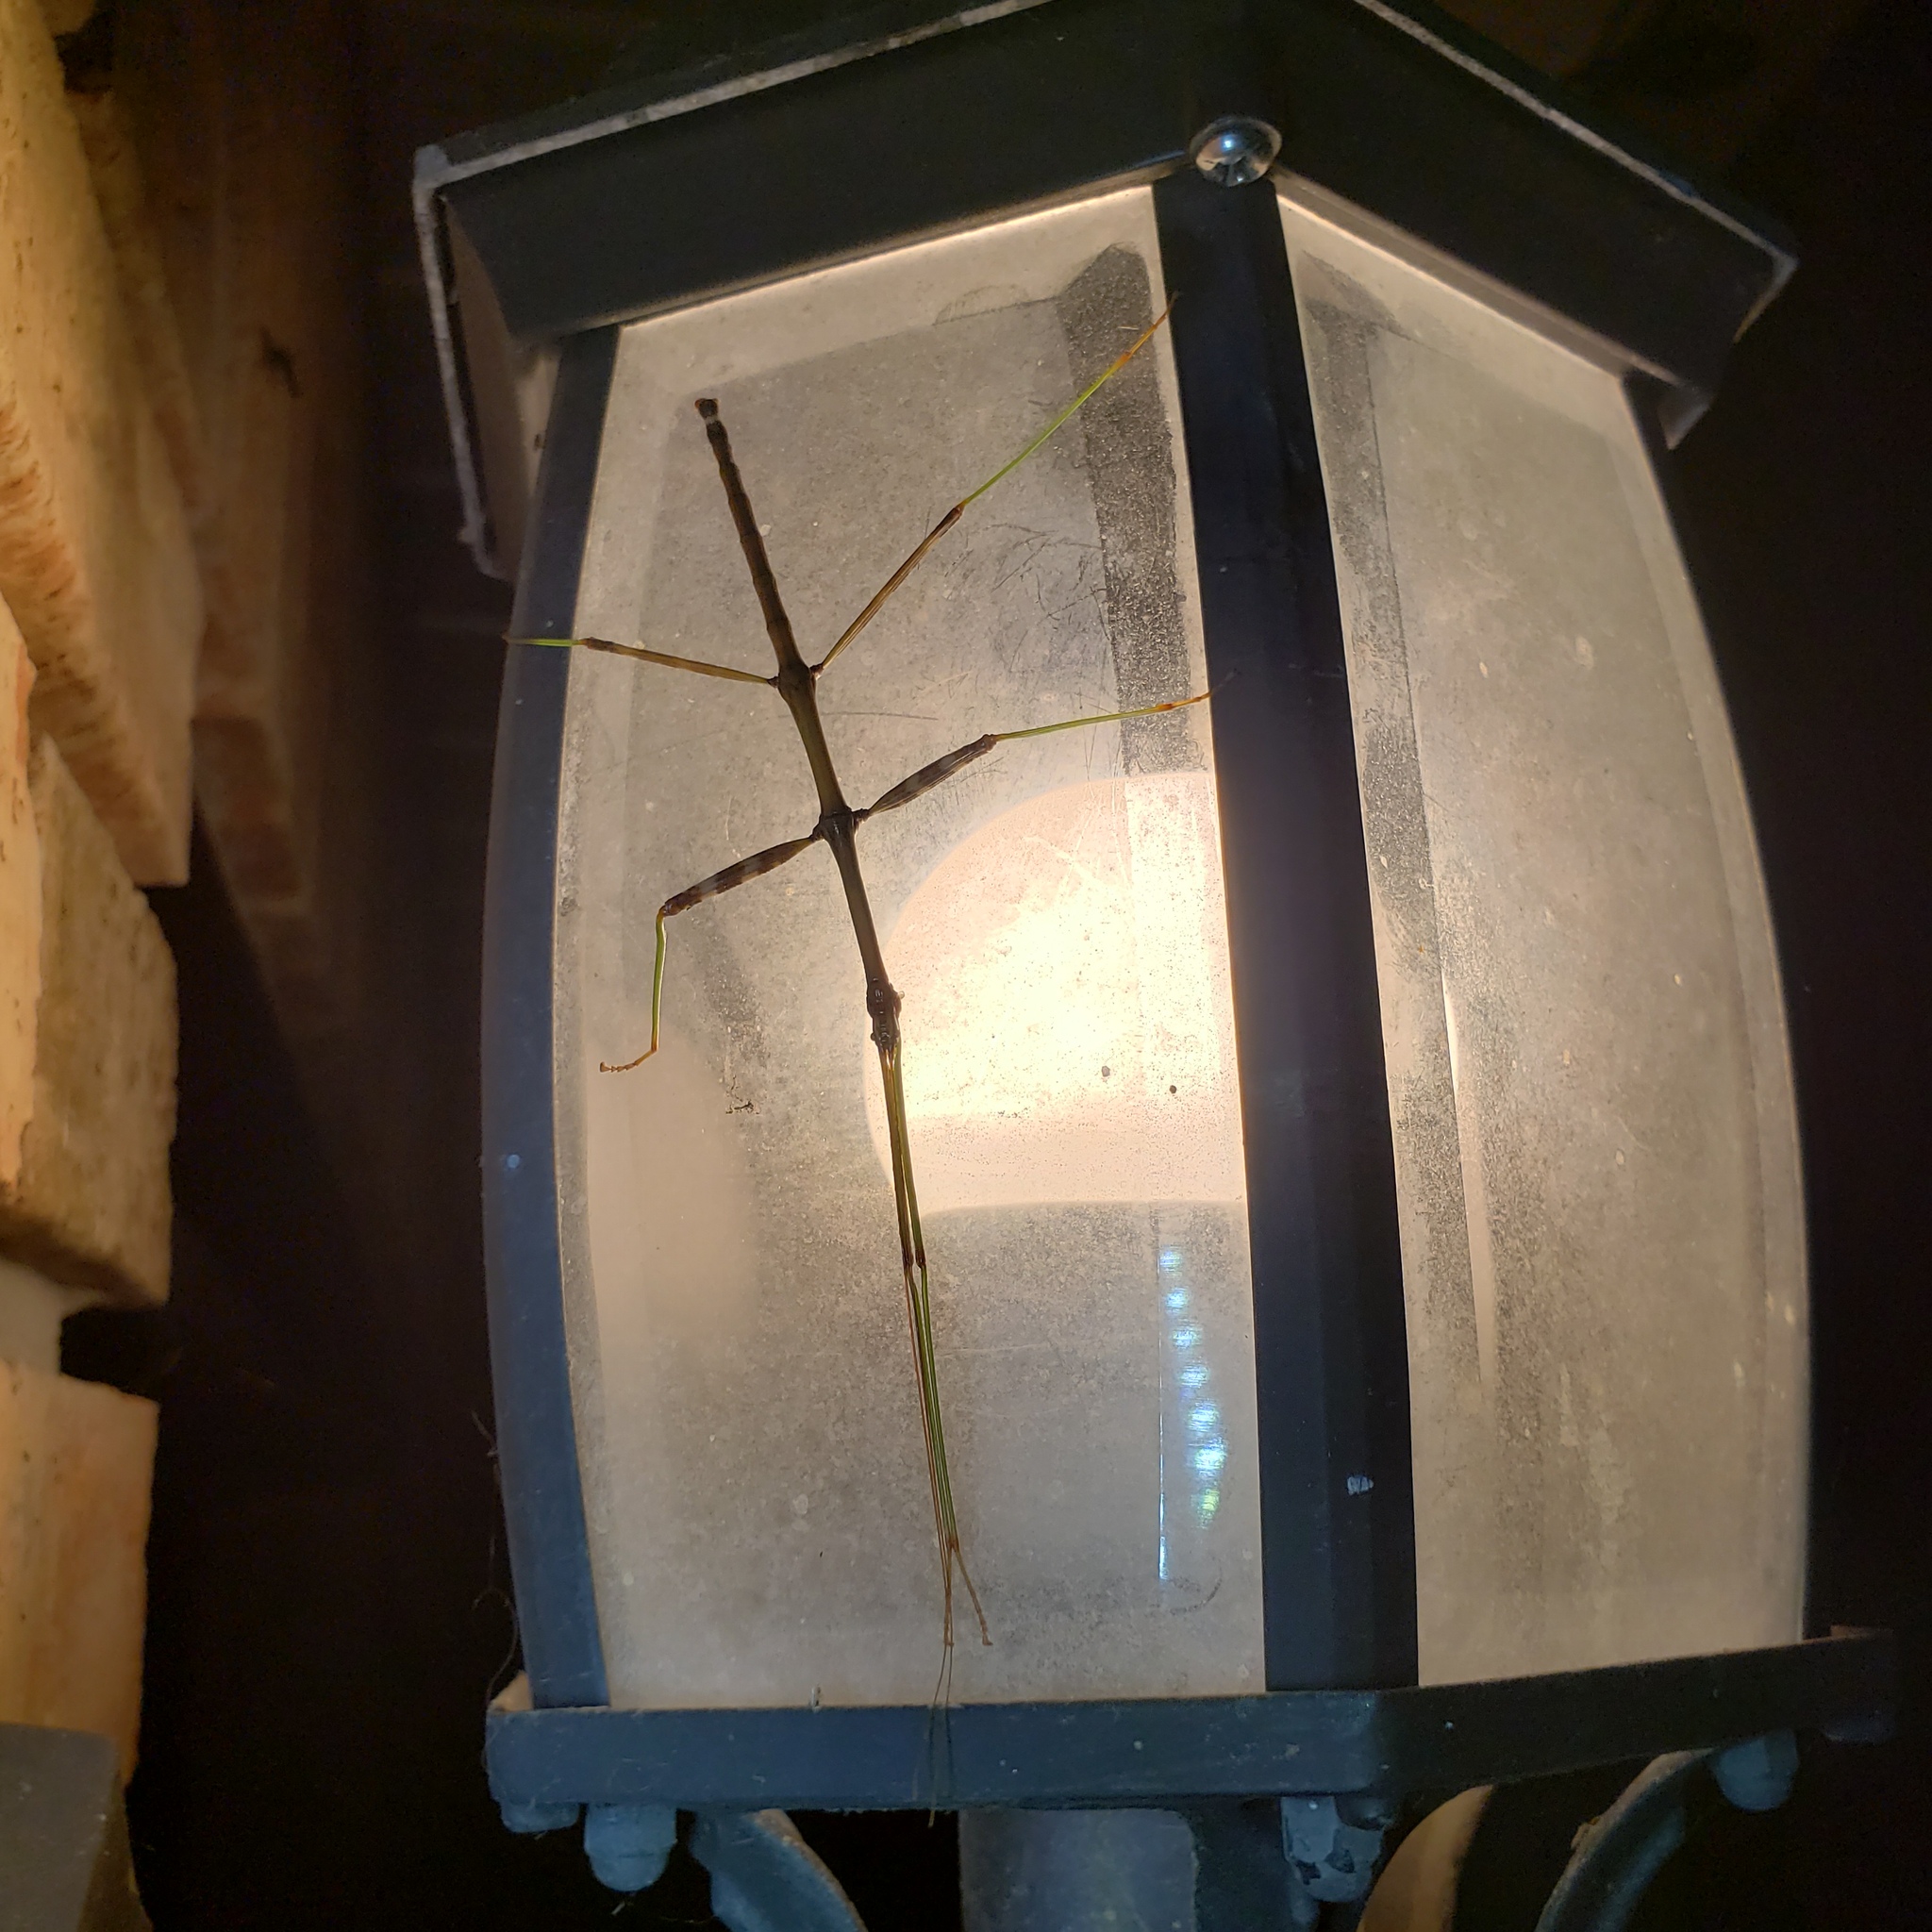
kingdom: Animalia
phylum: Arthropoda
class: Insecta
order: Phasmida
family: Diapheromeridae
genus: Diapheromera
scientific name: Diapheromera femorata
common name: Common american walkingstick
